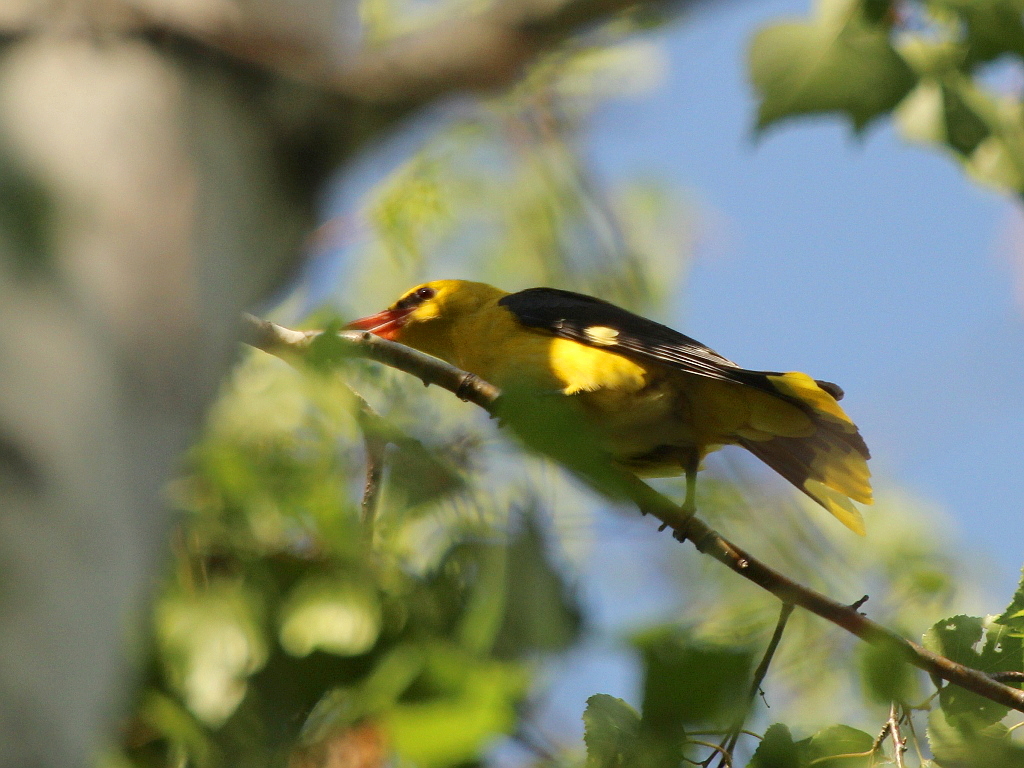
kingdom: Animalia
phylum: Chordata
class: Aves
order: Passeriformes
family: Oriolidae
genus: Oriolus
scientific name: Oriolus oriolus
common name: Eurasian golden oriole
